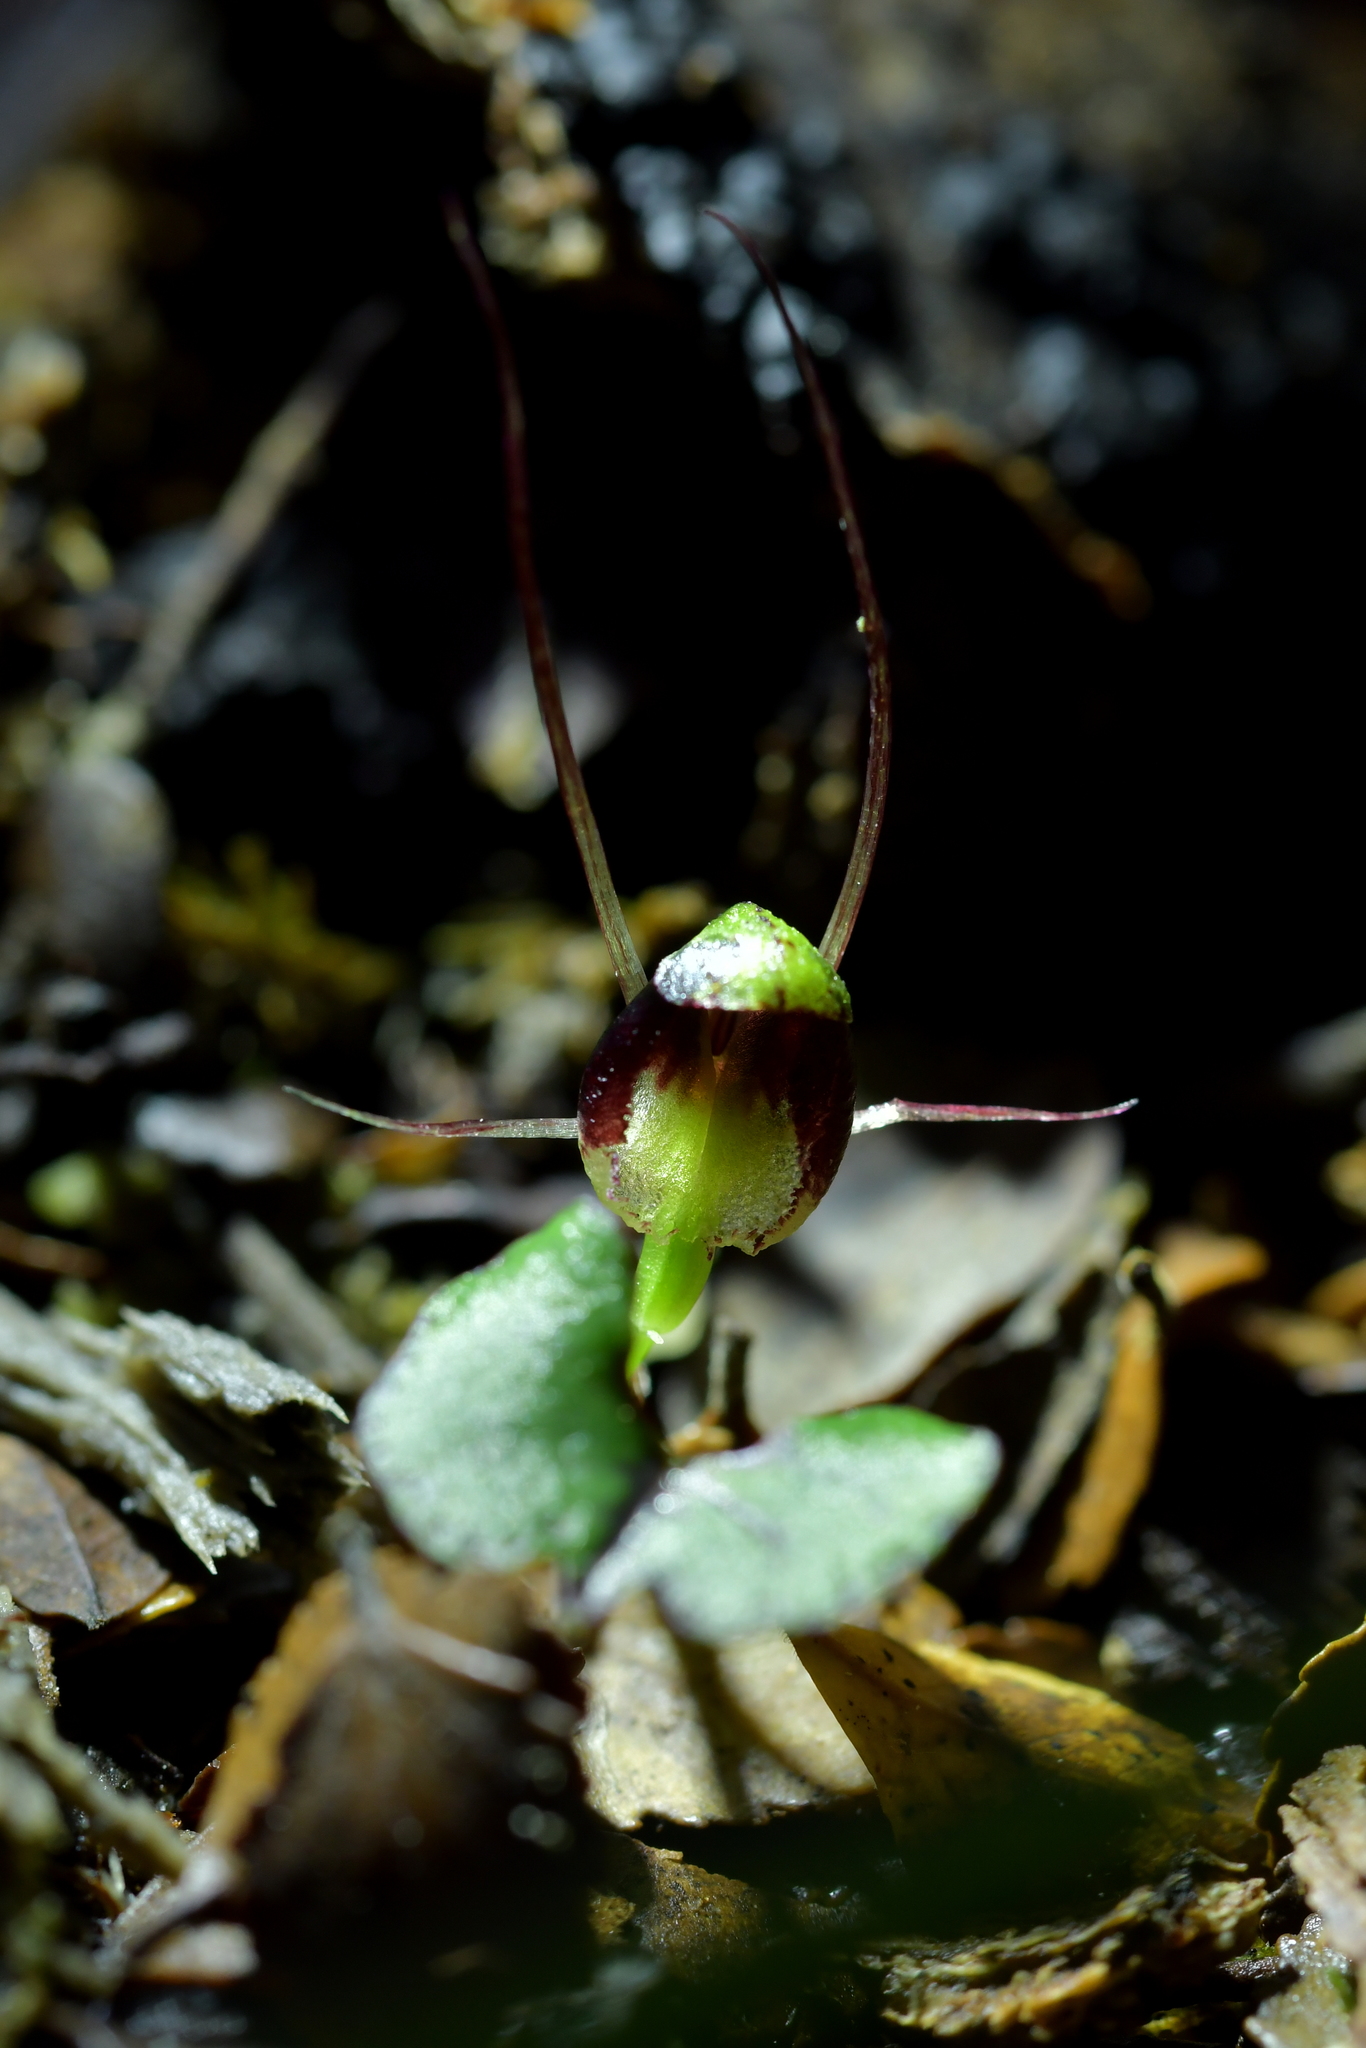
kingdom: Plantae
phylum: Tracheophyta
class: Liliopsida
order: Asparagales
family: Orchidaceae
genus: Corybas
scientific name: Corybas hypogaeus
